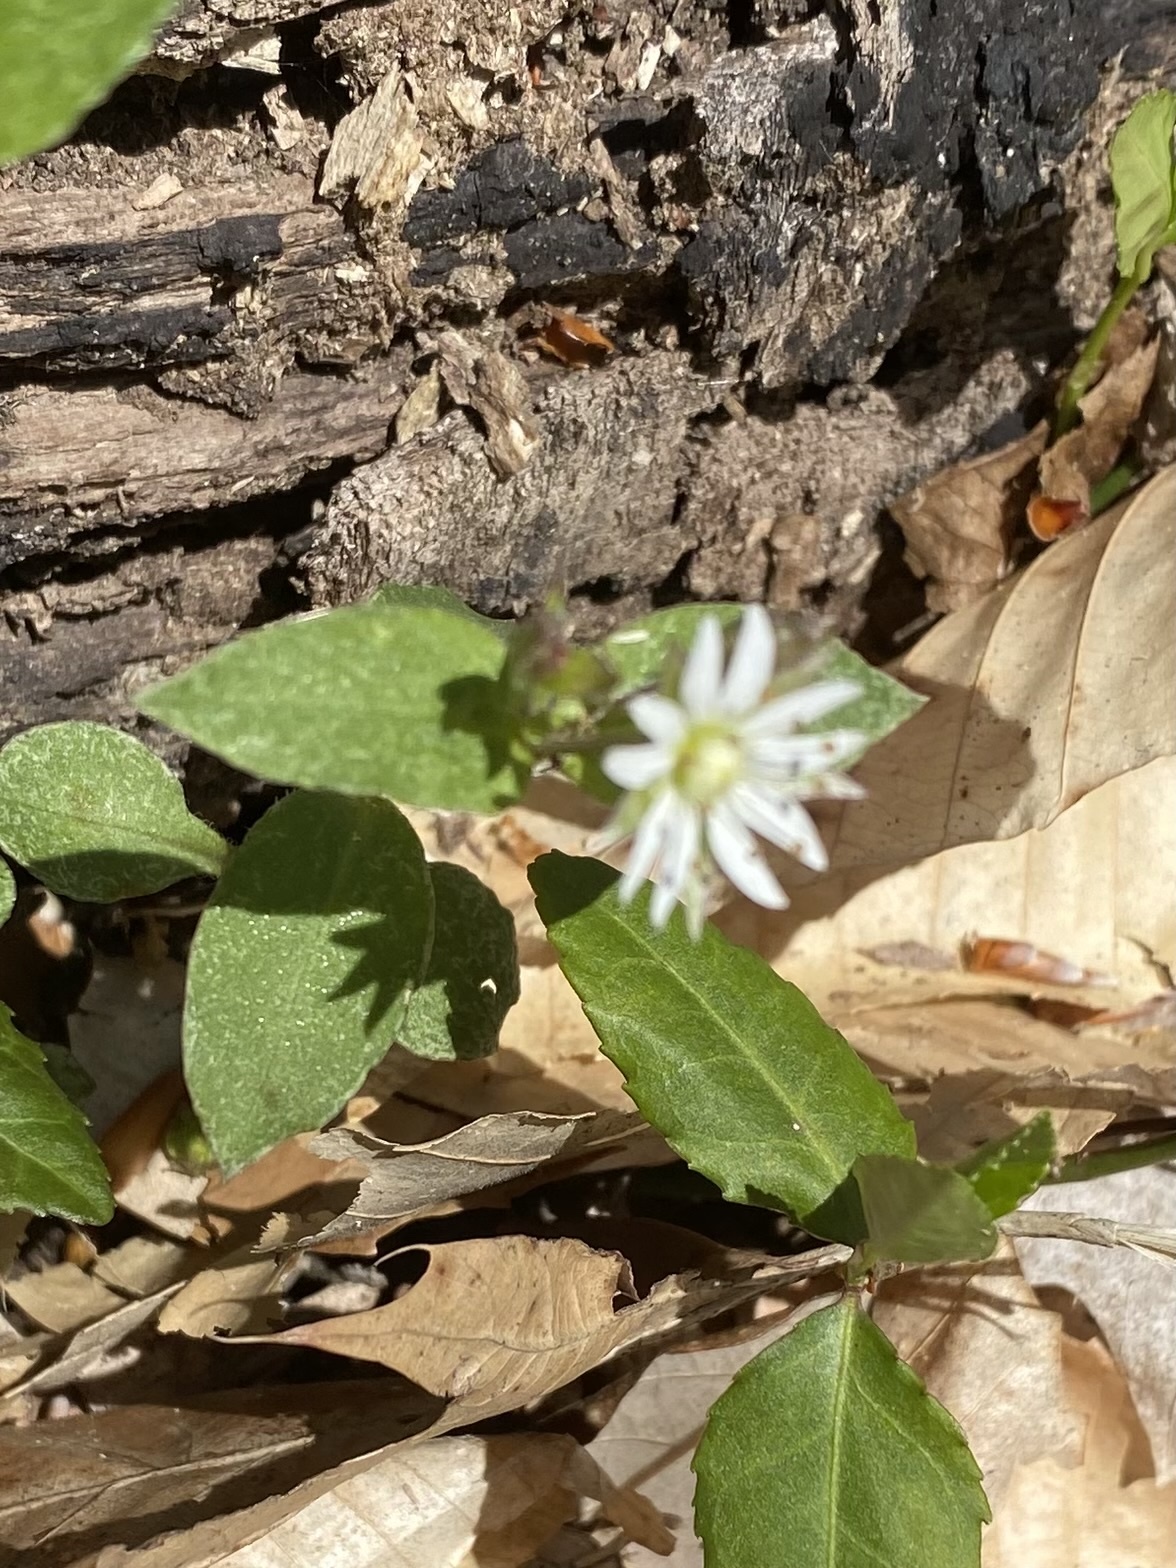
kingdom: Plantae
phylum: Tracheophyta
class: Magnoliopsida
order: Caryophyllales
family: Caryophyllaceae
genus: Stellaria
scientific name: Stellaria pubera
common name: Star chickweed
